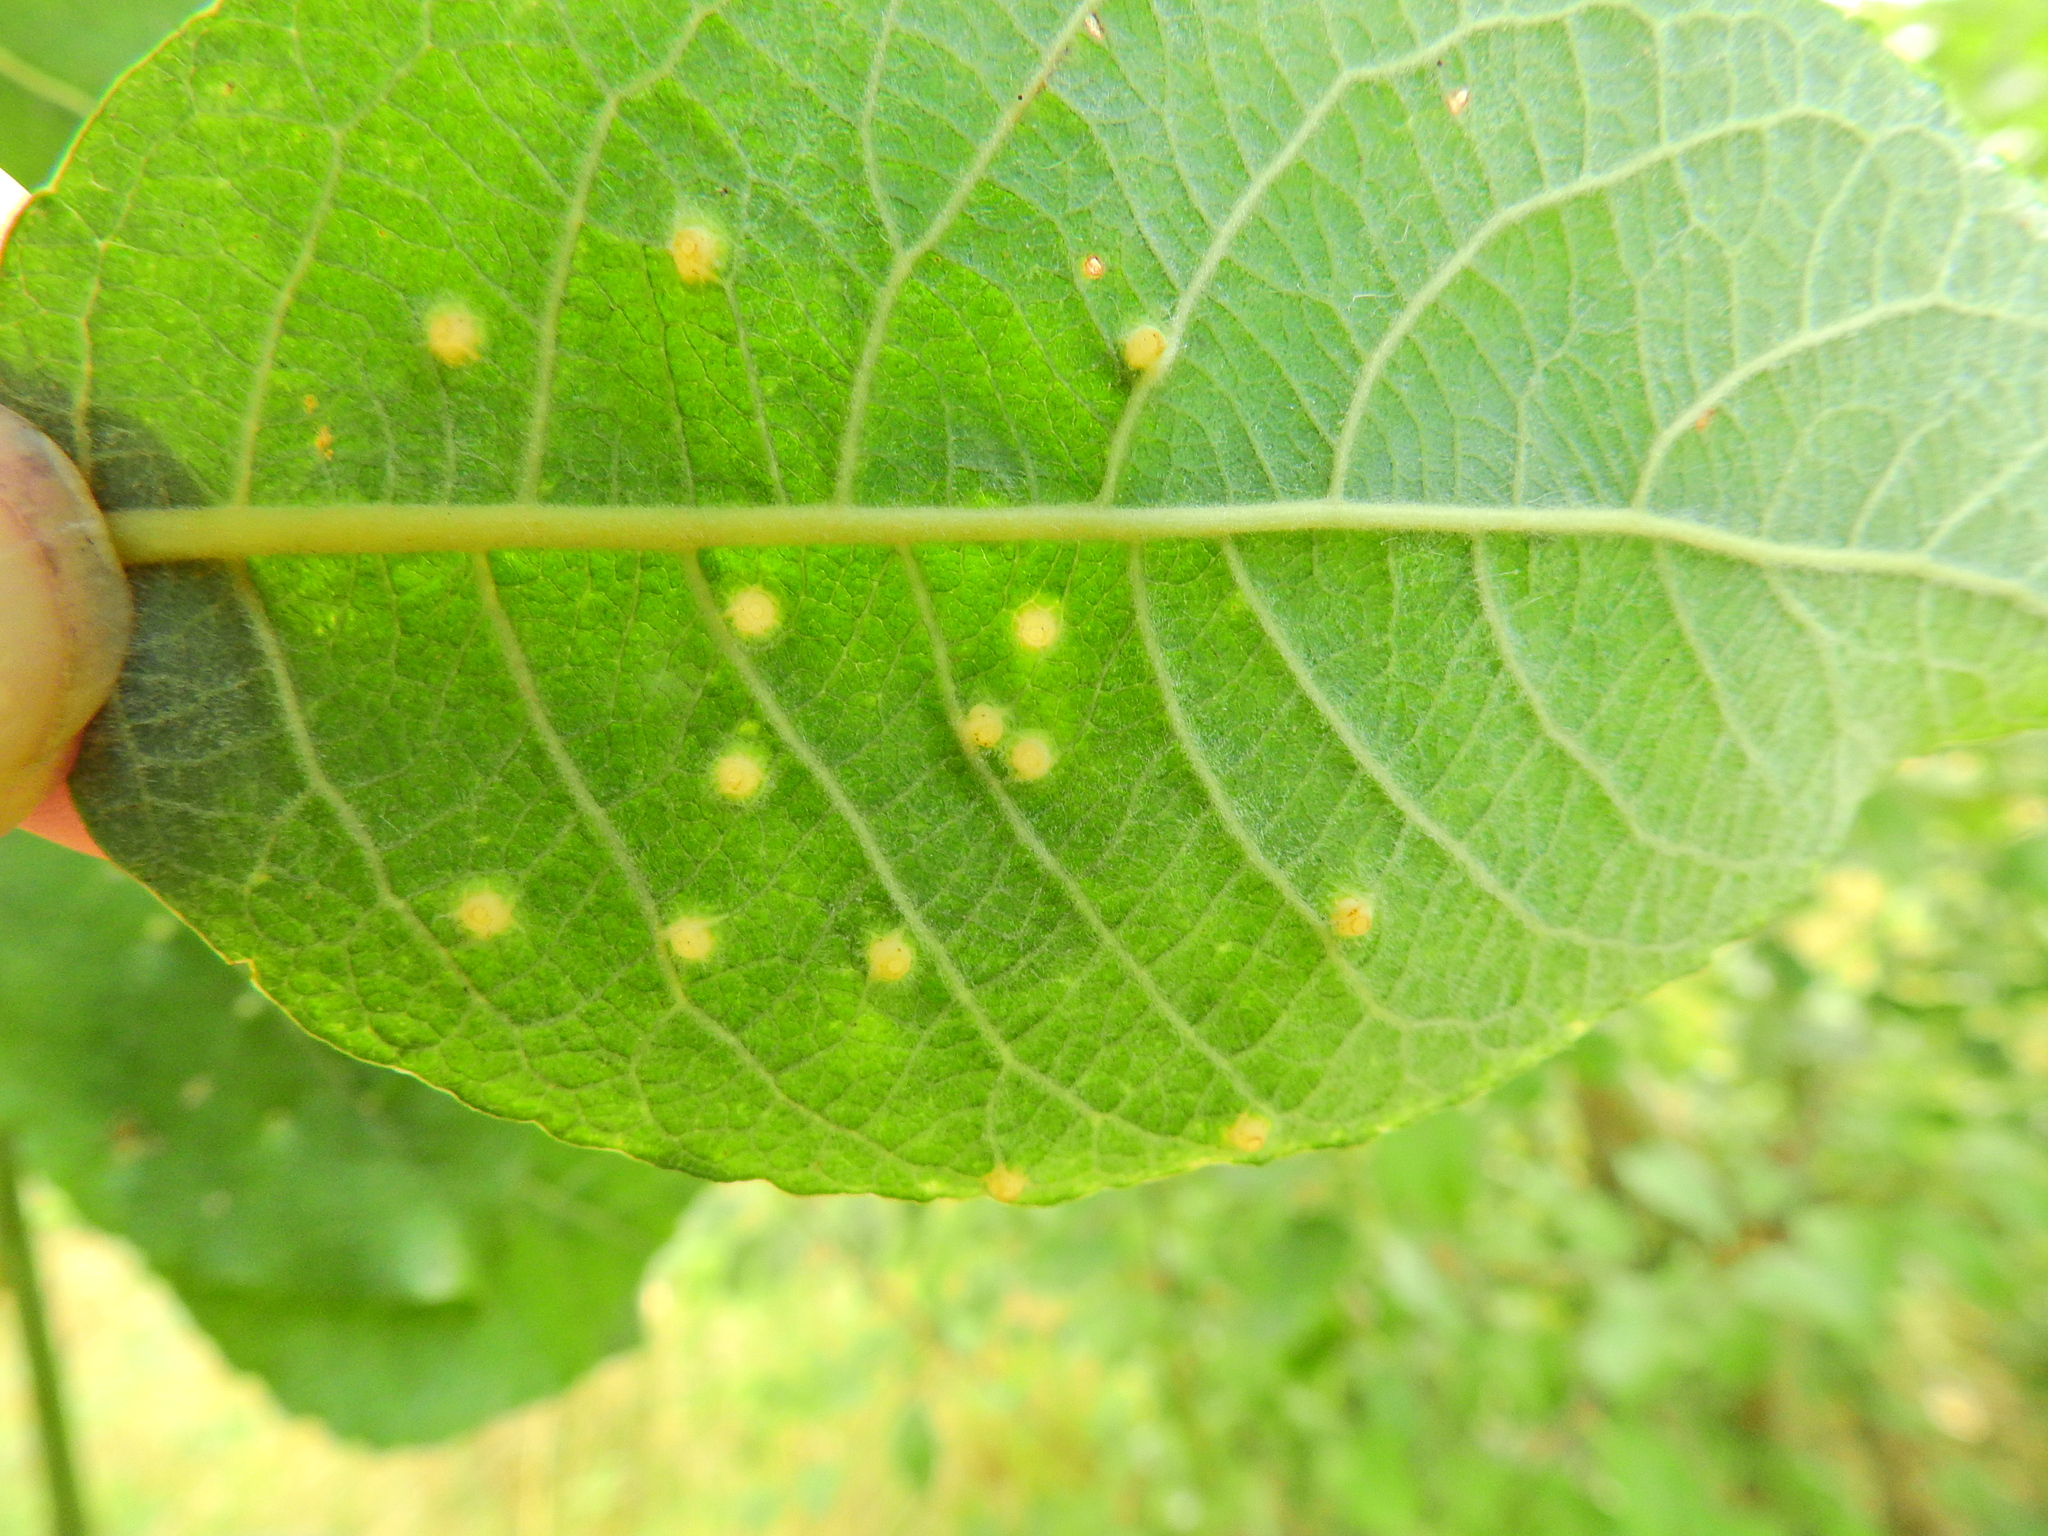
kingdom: Animalia
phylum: Arthropoda
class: Insecta
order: Diptera
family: Cecidomyiidae
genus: Iteomyia
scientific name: Iteomyia capreae
